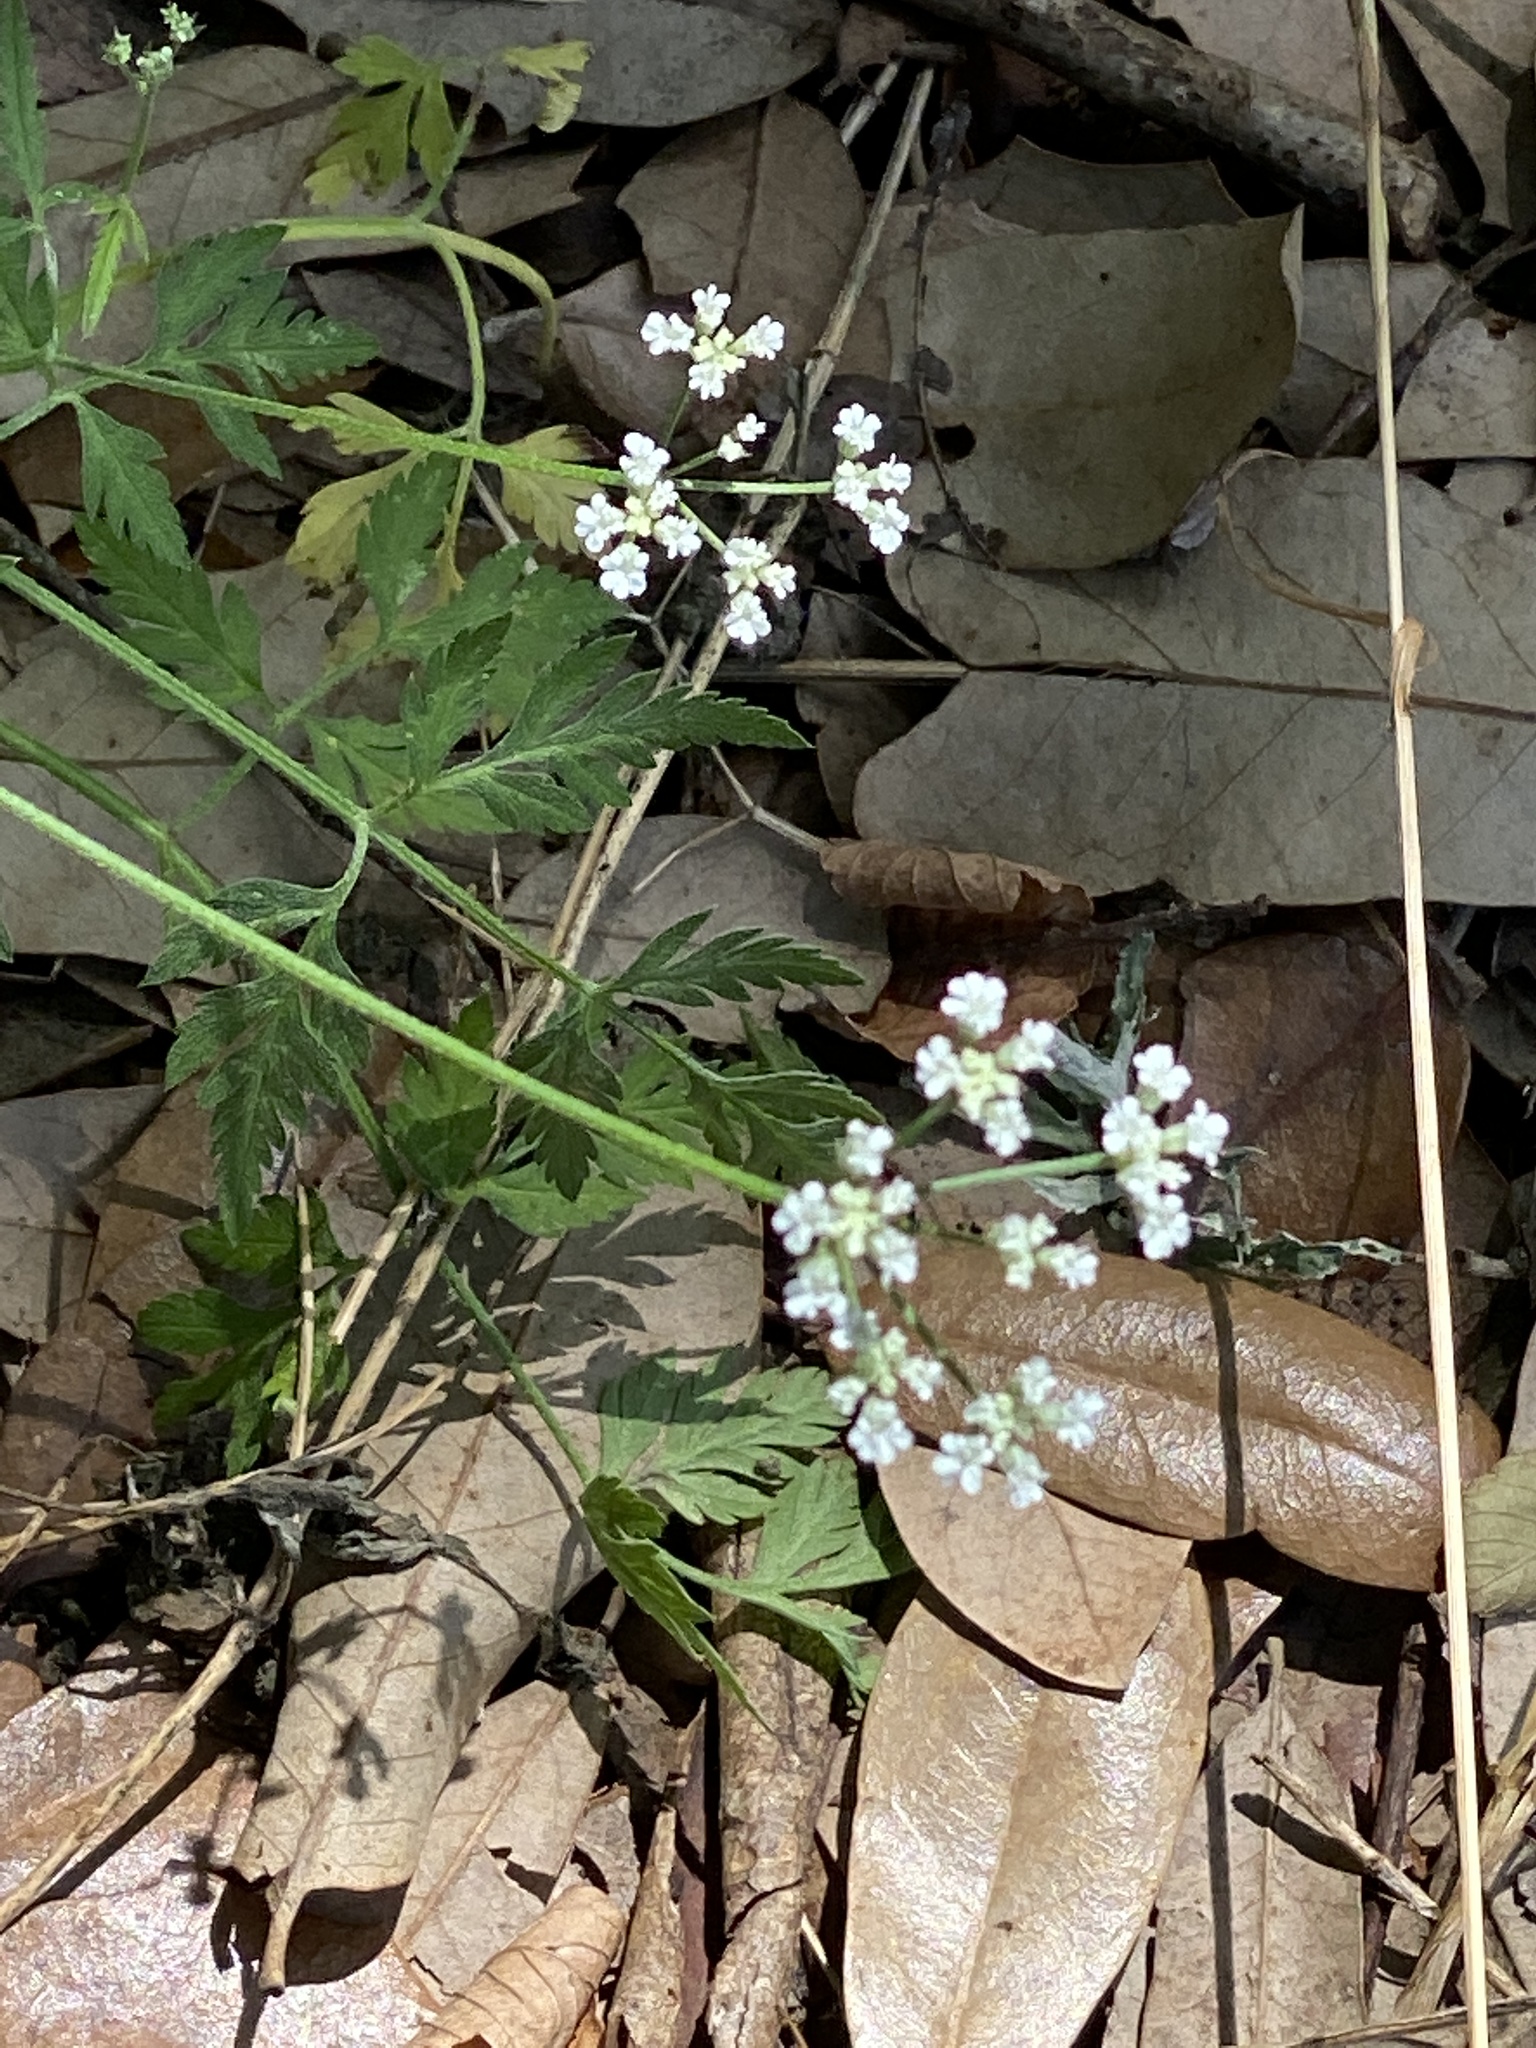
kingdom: Plantae
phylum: Tracheophyta
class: Magnoliopsida
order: Apiales
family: Apiaceae
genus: Torilis
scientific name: Torilis arvensis
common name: Spreading hedge-parsley
